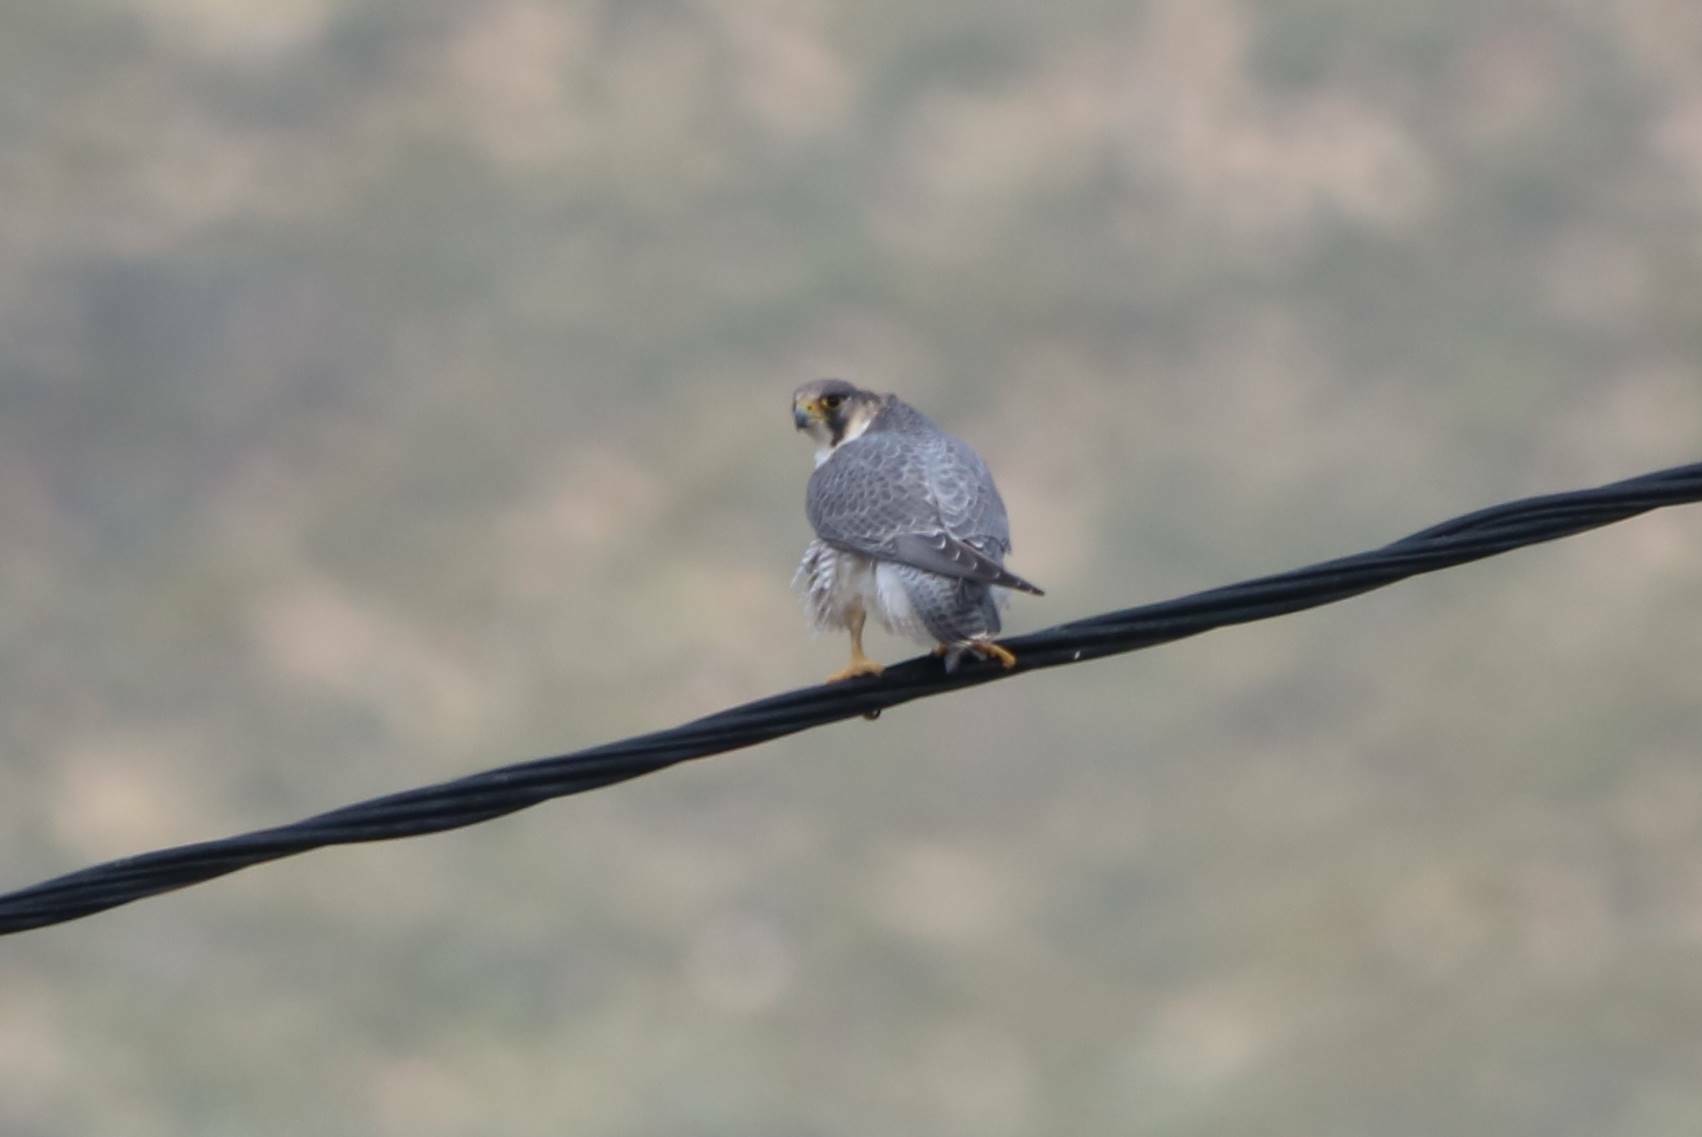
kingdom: Animalia
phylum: Chordata
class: Aves
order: Falconiformes
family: Falconidae
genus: Falco
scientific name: Falco peregrinus
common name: Peregrine falcon
